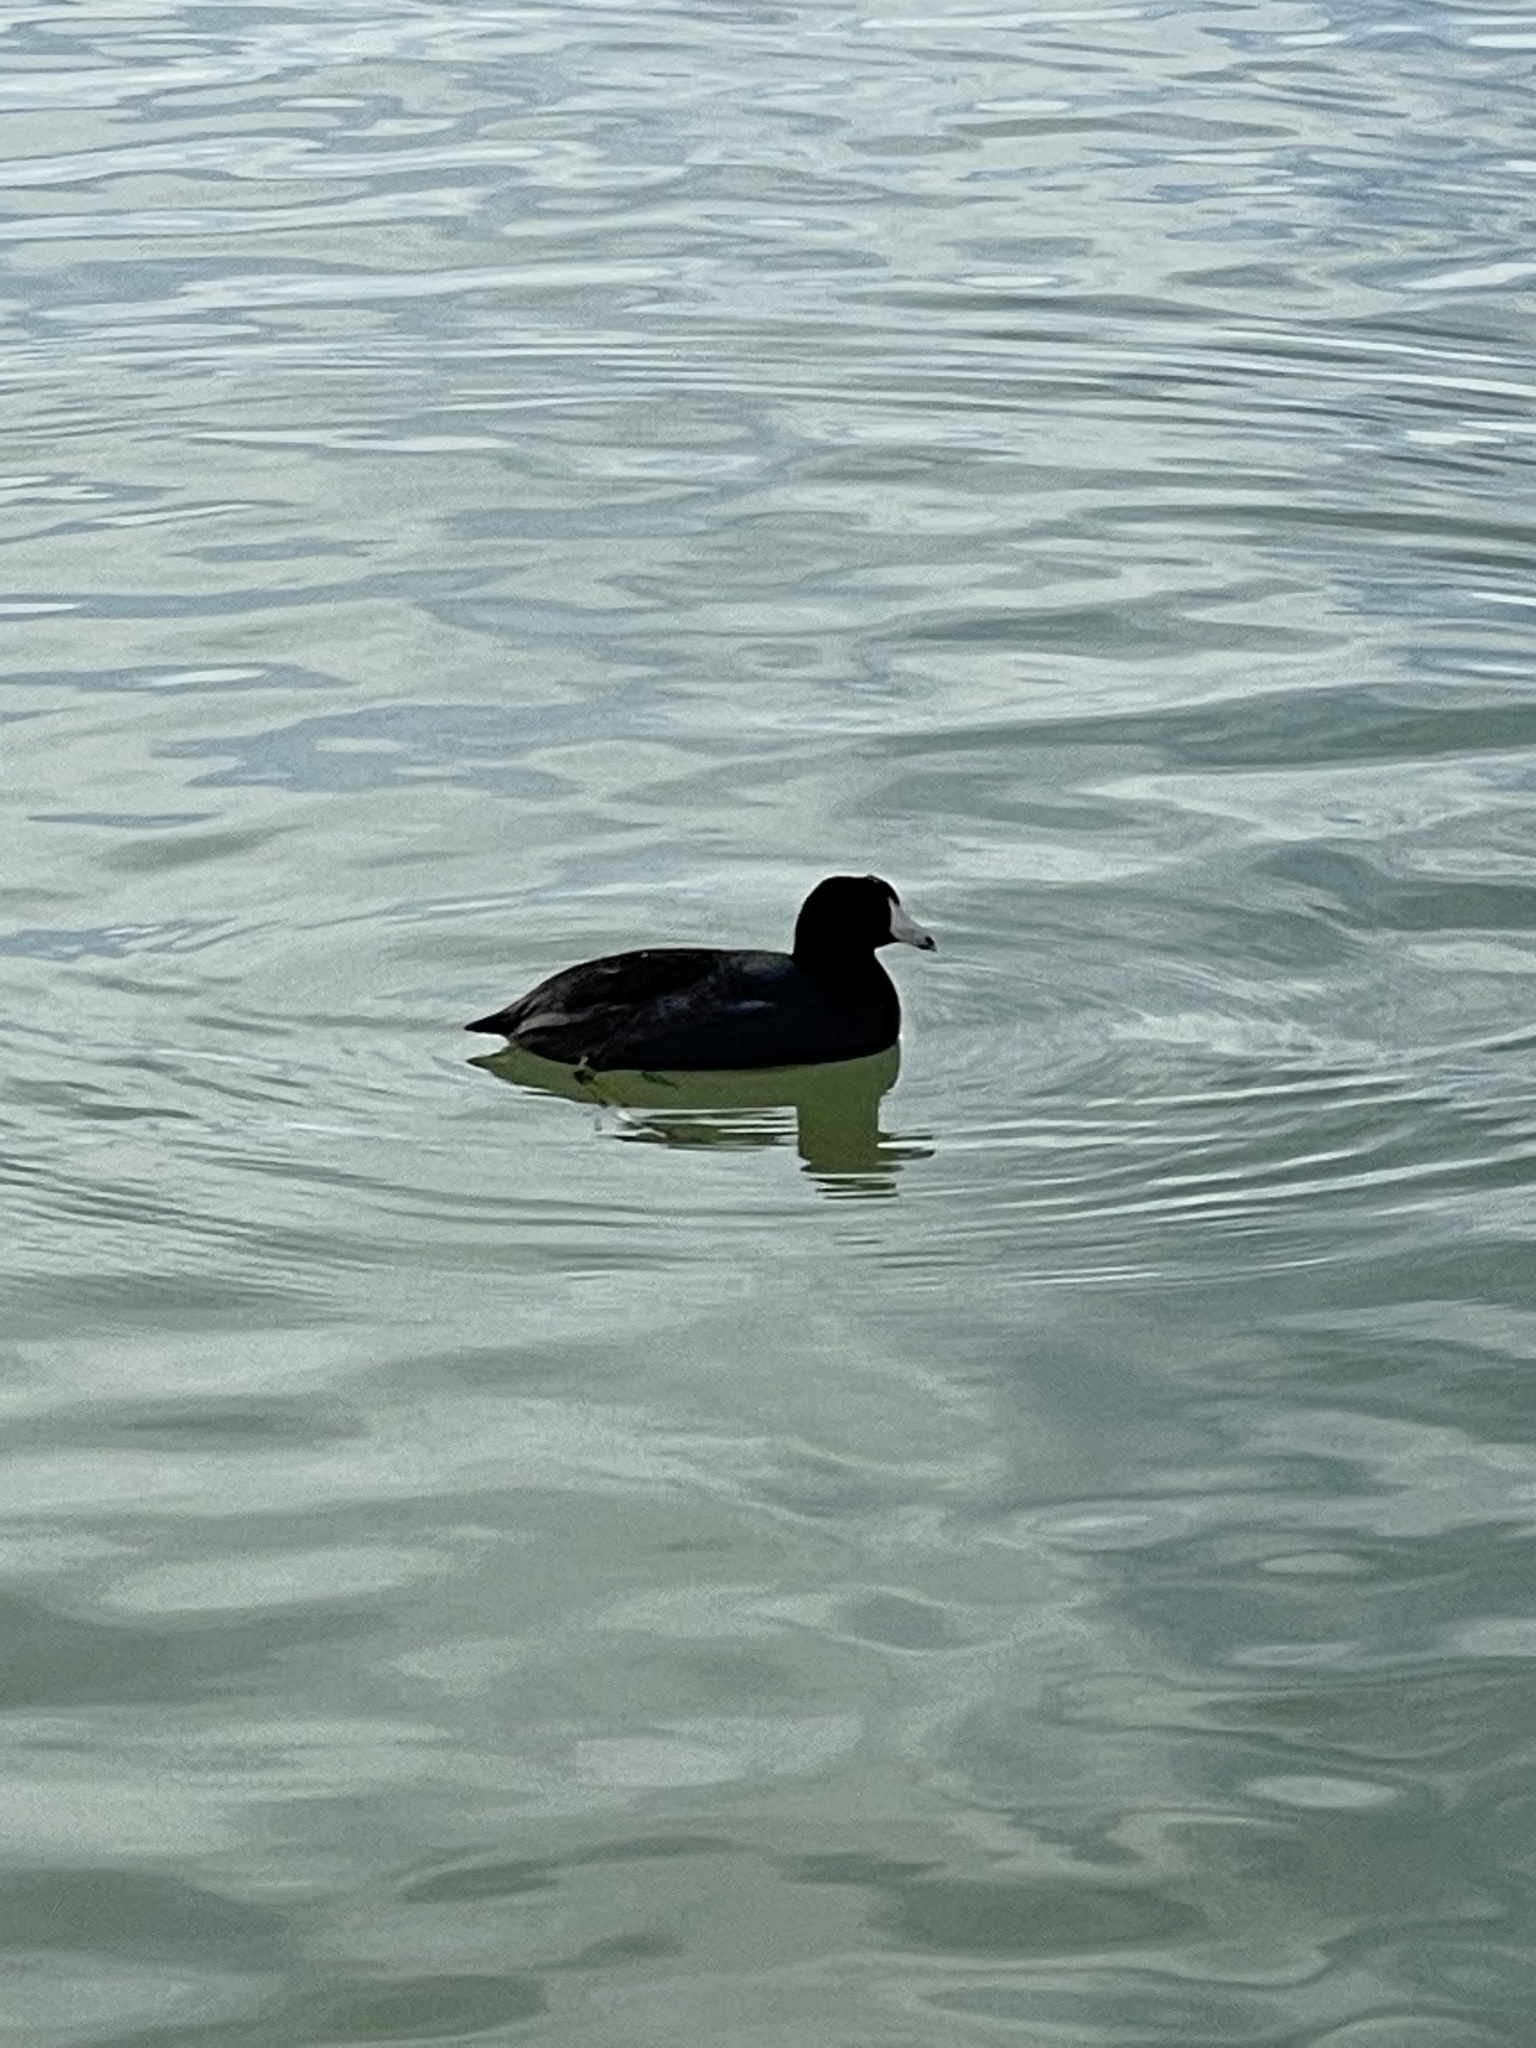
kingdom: Animalia
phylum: Chordata
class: Aves
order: Gruiformes
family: Rallidae
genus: Fulica
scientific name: Fulica americana
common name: American coot
